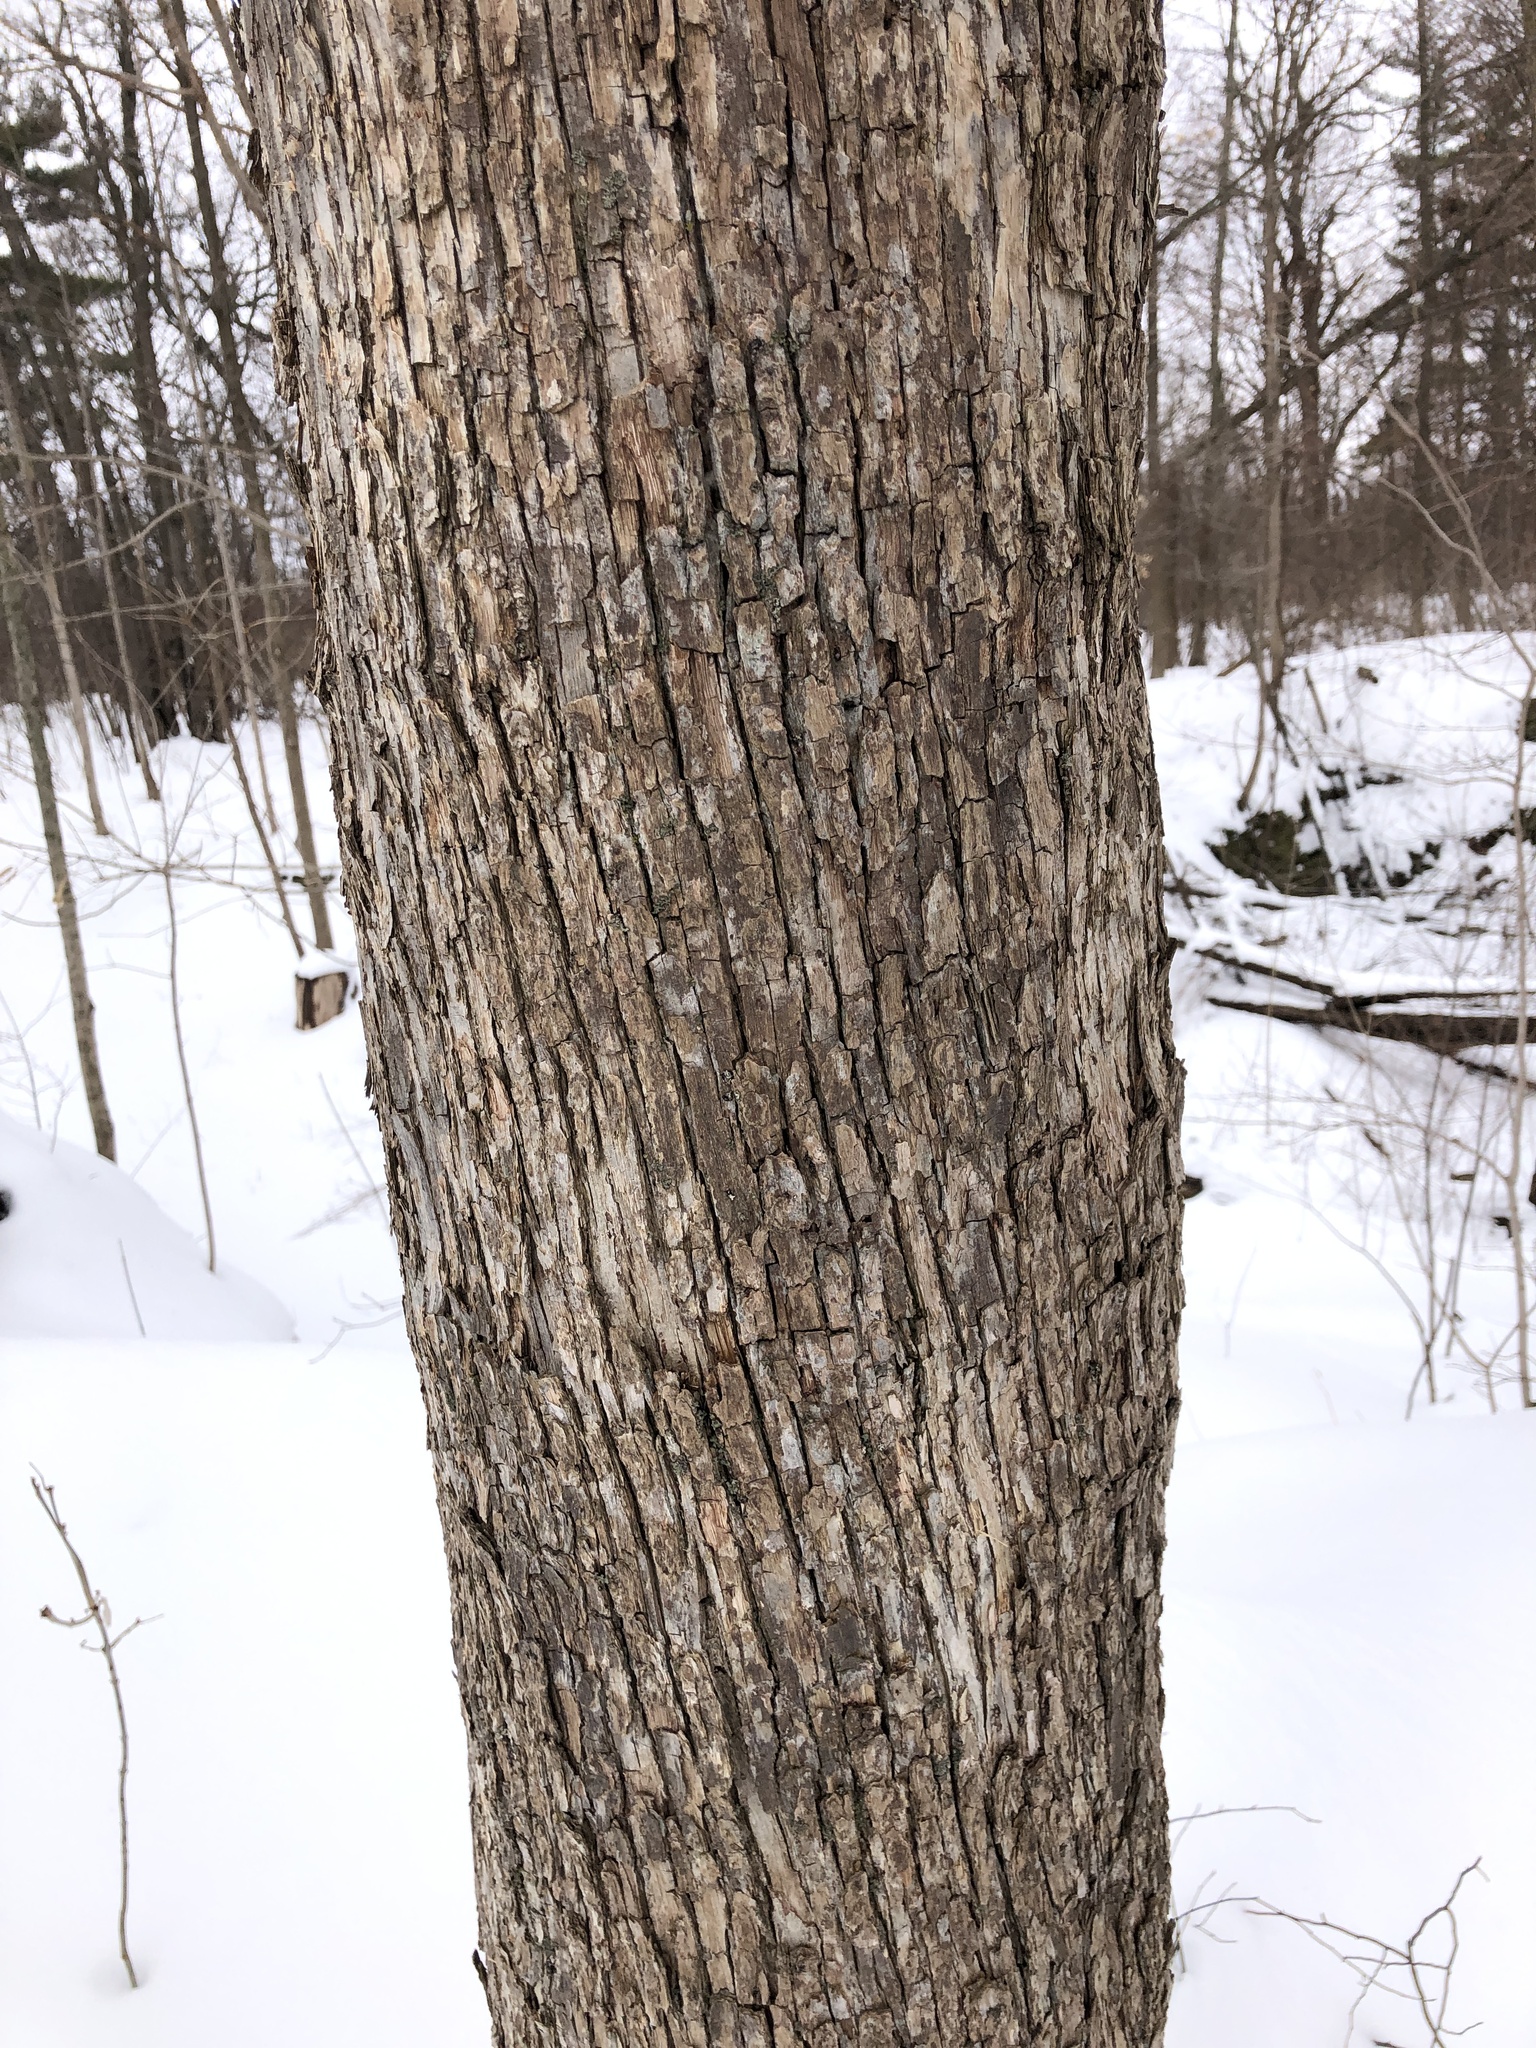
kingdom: Plantae
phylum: Tracheophyta
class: Magnoliopsida
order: Fagales
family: Betulaceae
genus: Ostrya
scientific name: Ostrya virginiana
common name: Ironwood
